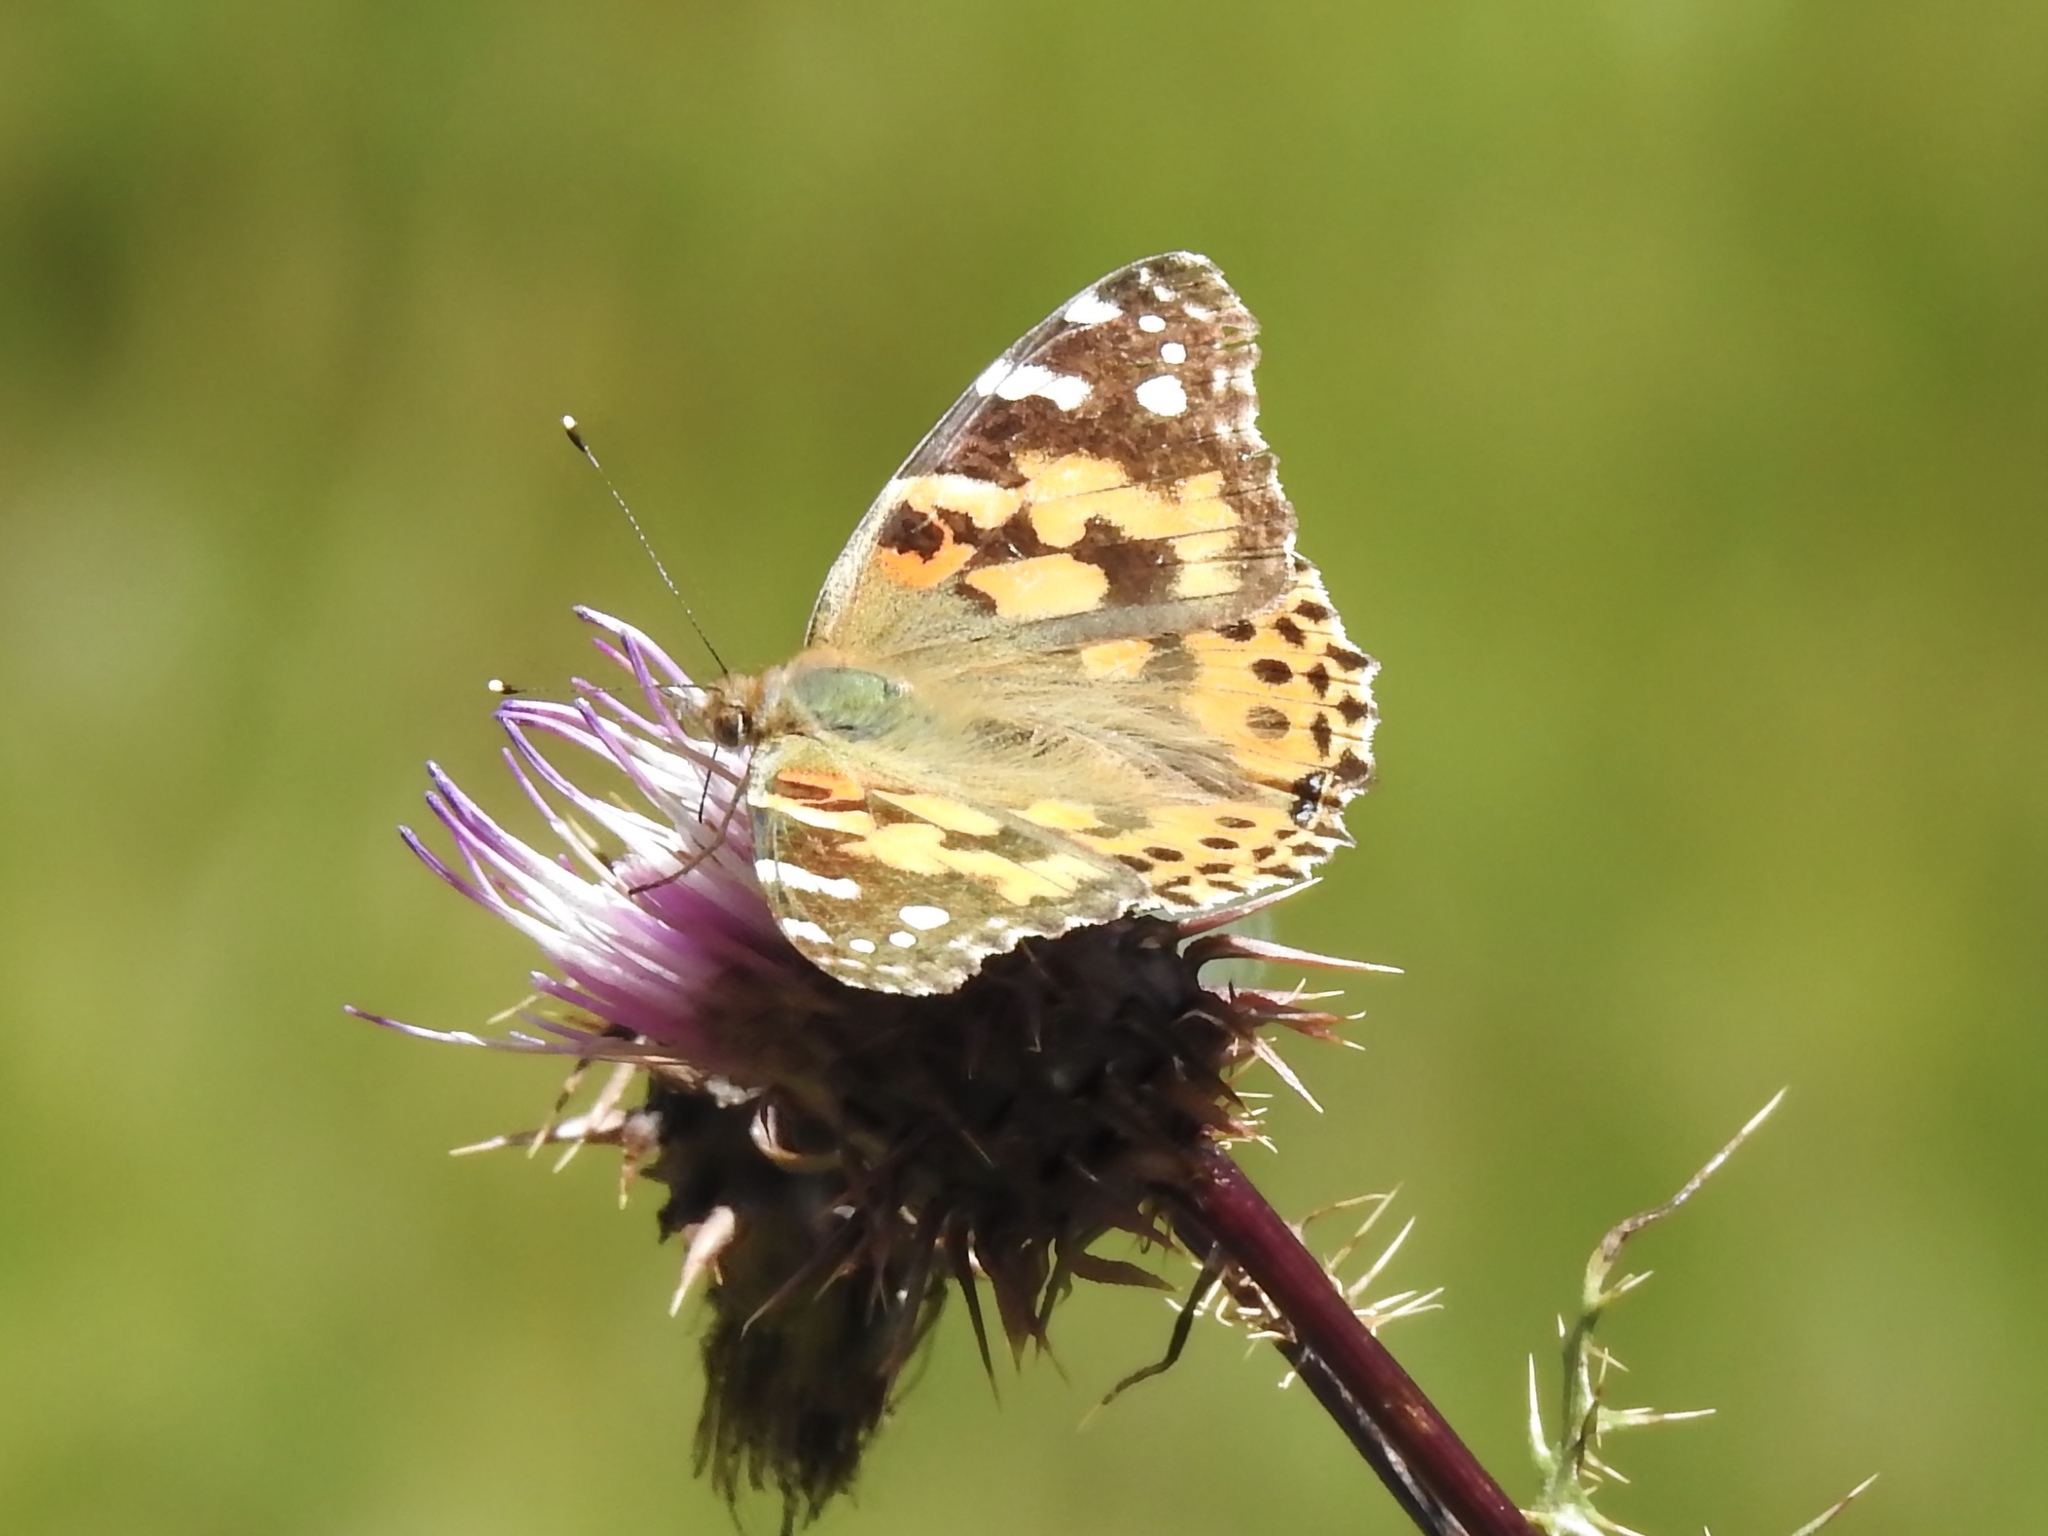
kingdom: Animalia
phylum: Arthropoda
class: Insecta
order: Lepidoptera
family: Nymphalidae
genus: Vanessa
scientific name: Vanessa cardui
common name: Painted lady
